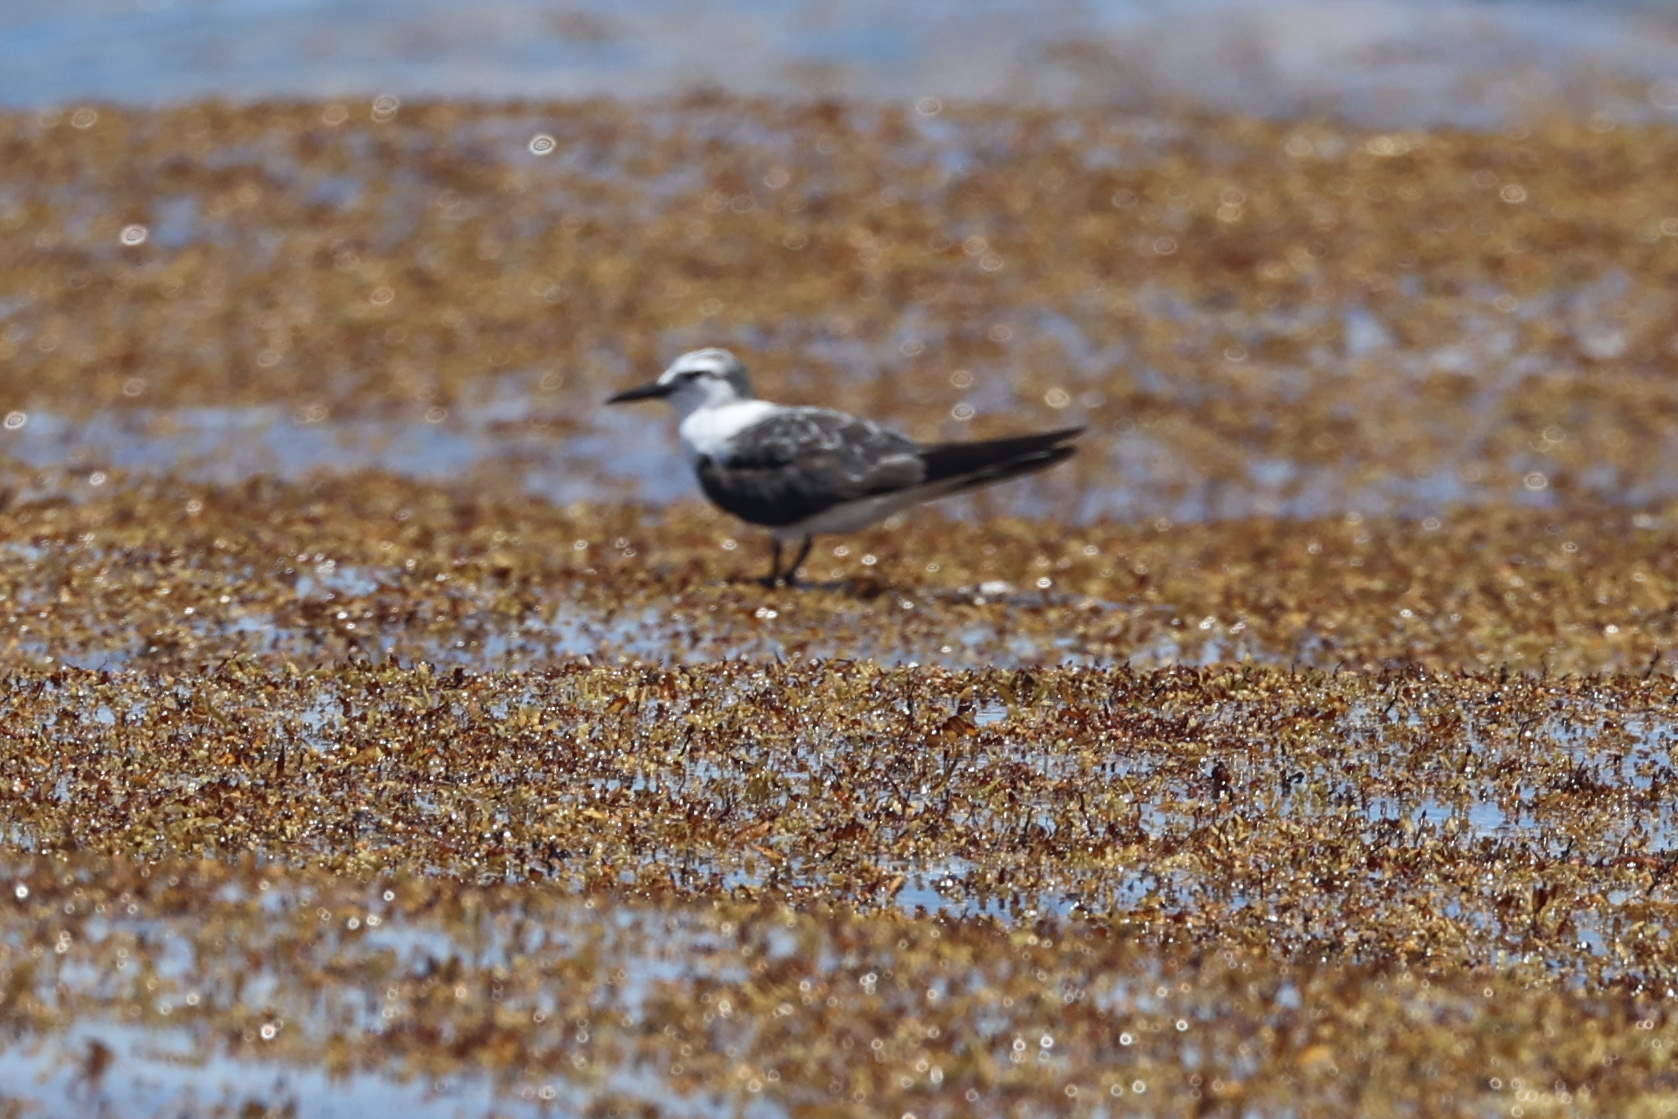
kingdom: Animalia
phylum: Chordata
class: Aves
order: Charadriiformes
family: Laridae
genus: Onychoprion
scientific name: Onychoprion anaethetus
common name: Bridled tern
